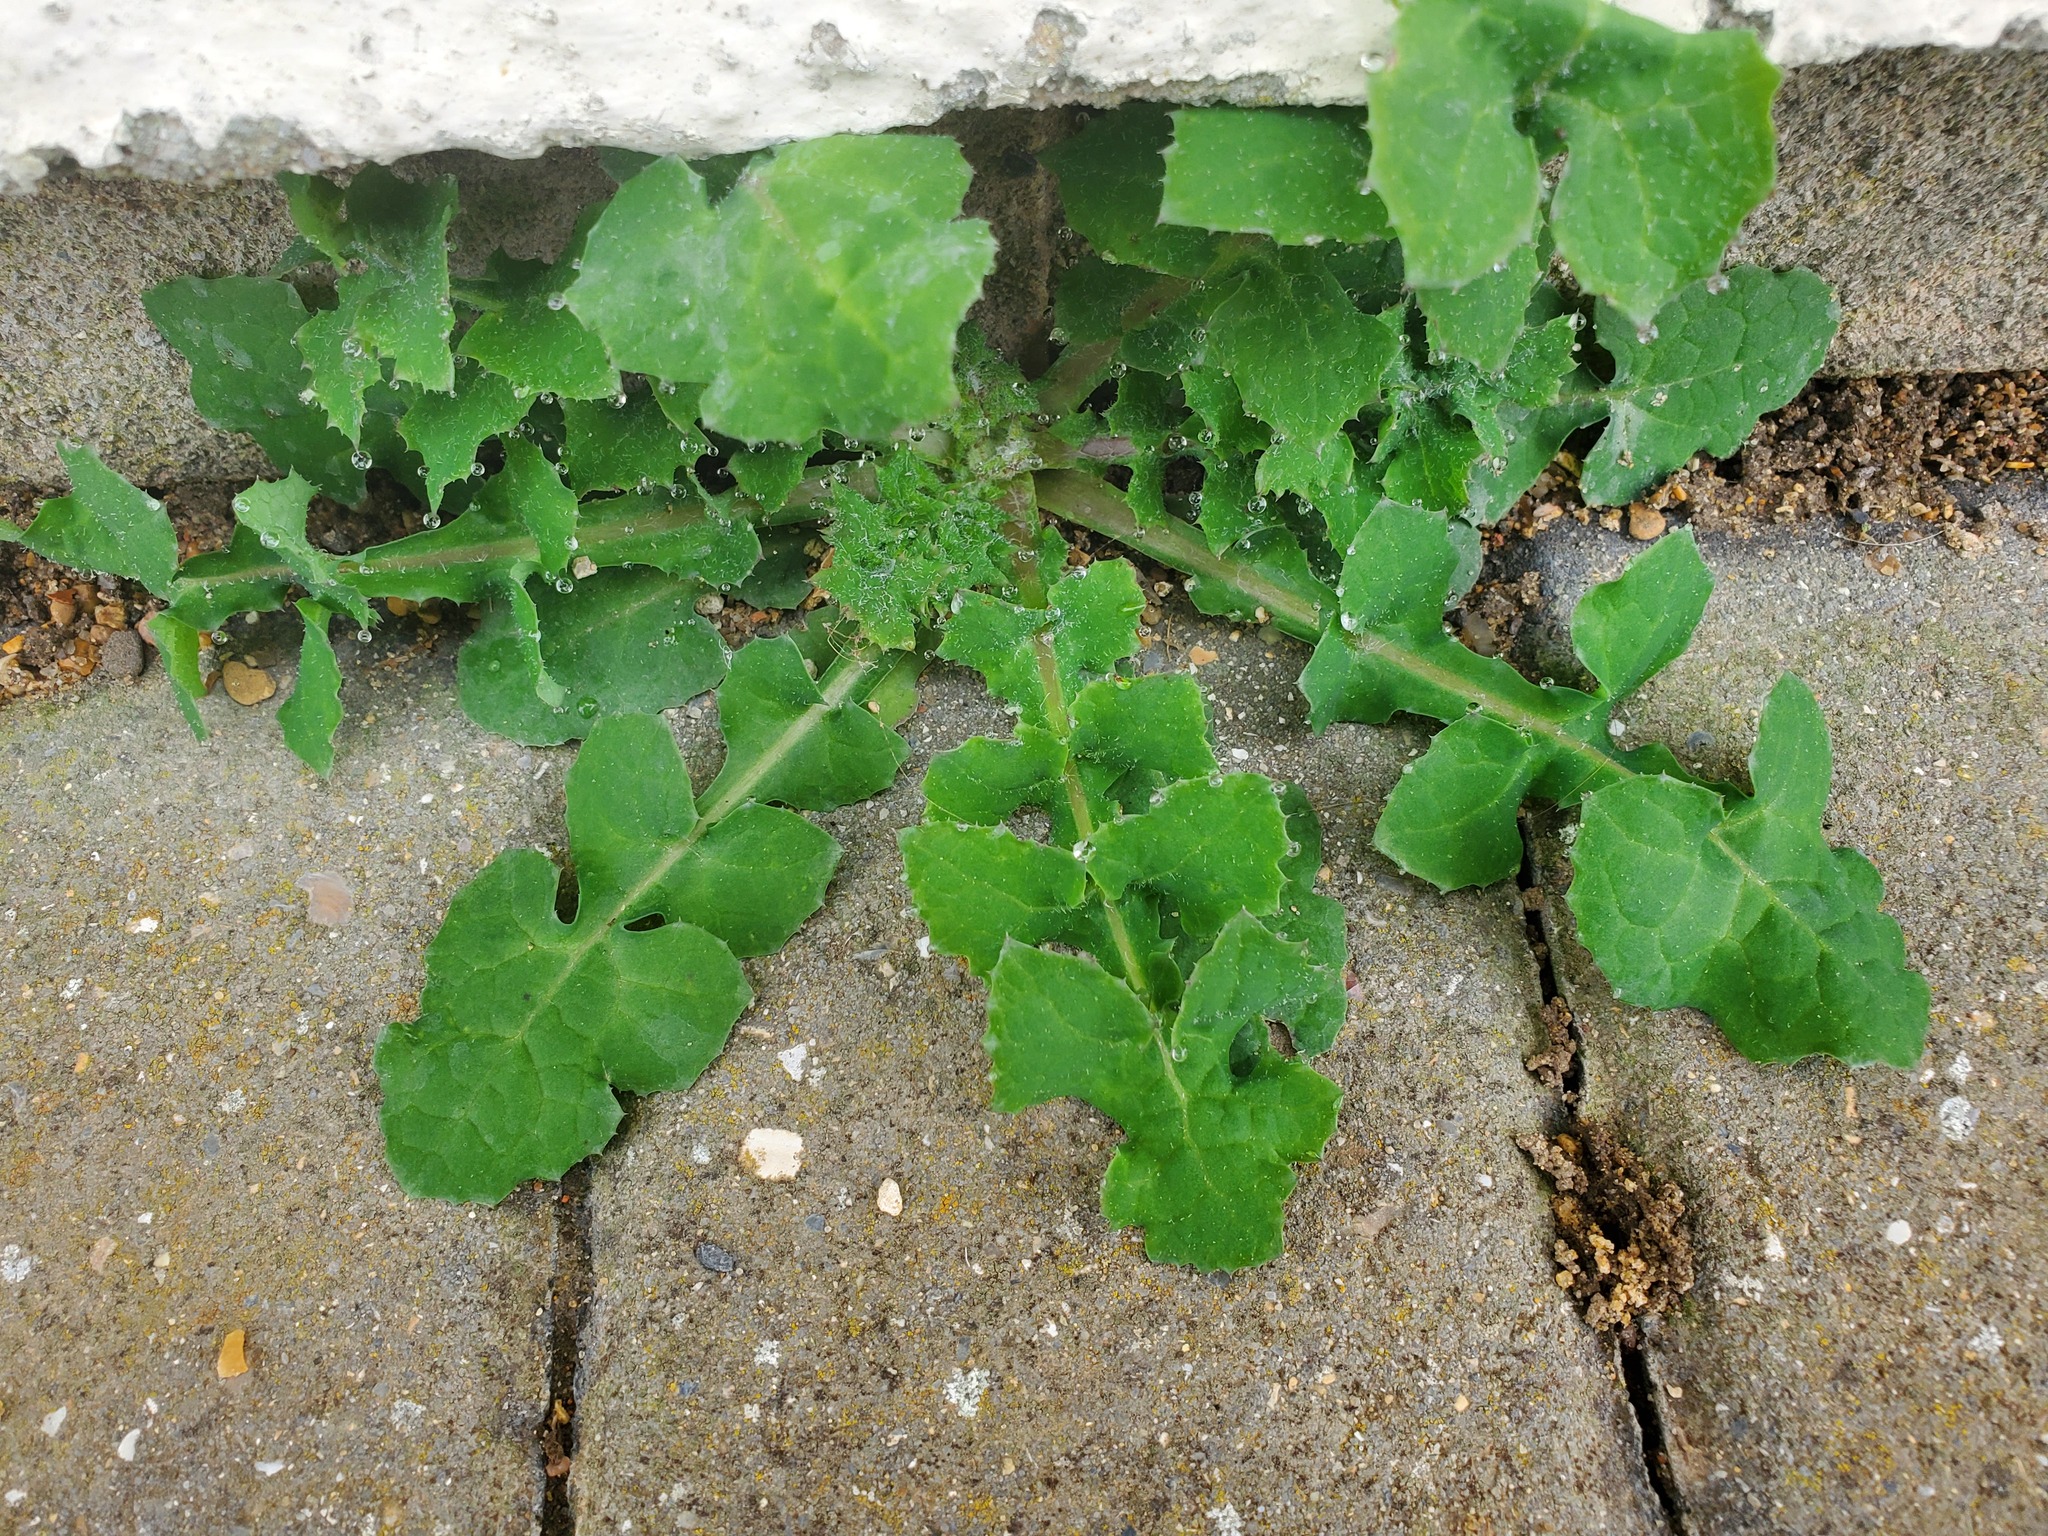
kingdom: Plantae
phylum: Tracheophyta
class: Magnoliopsida
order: Asterales
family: Asteraceae
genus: Sonchus
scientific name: Sonchus oleraceus
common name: Common sowthistle
